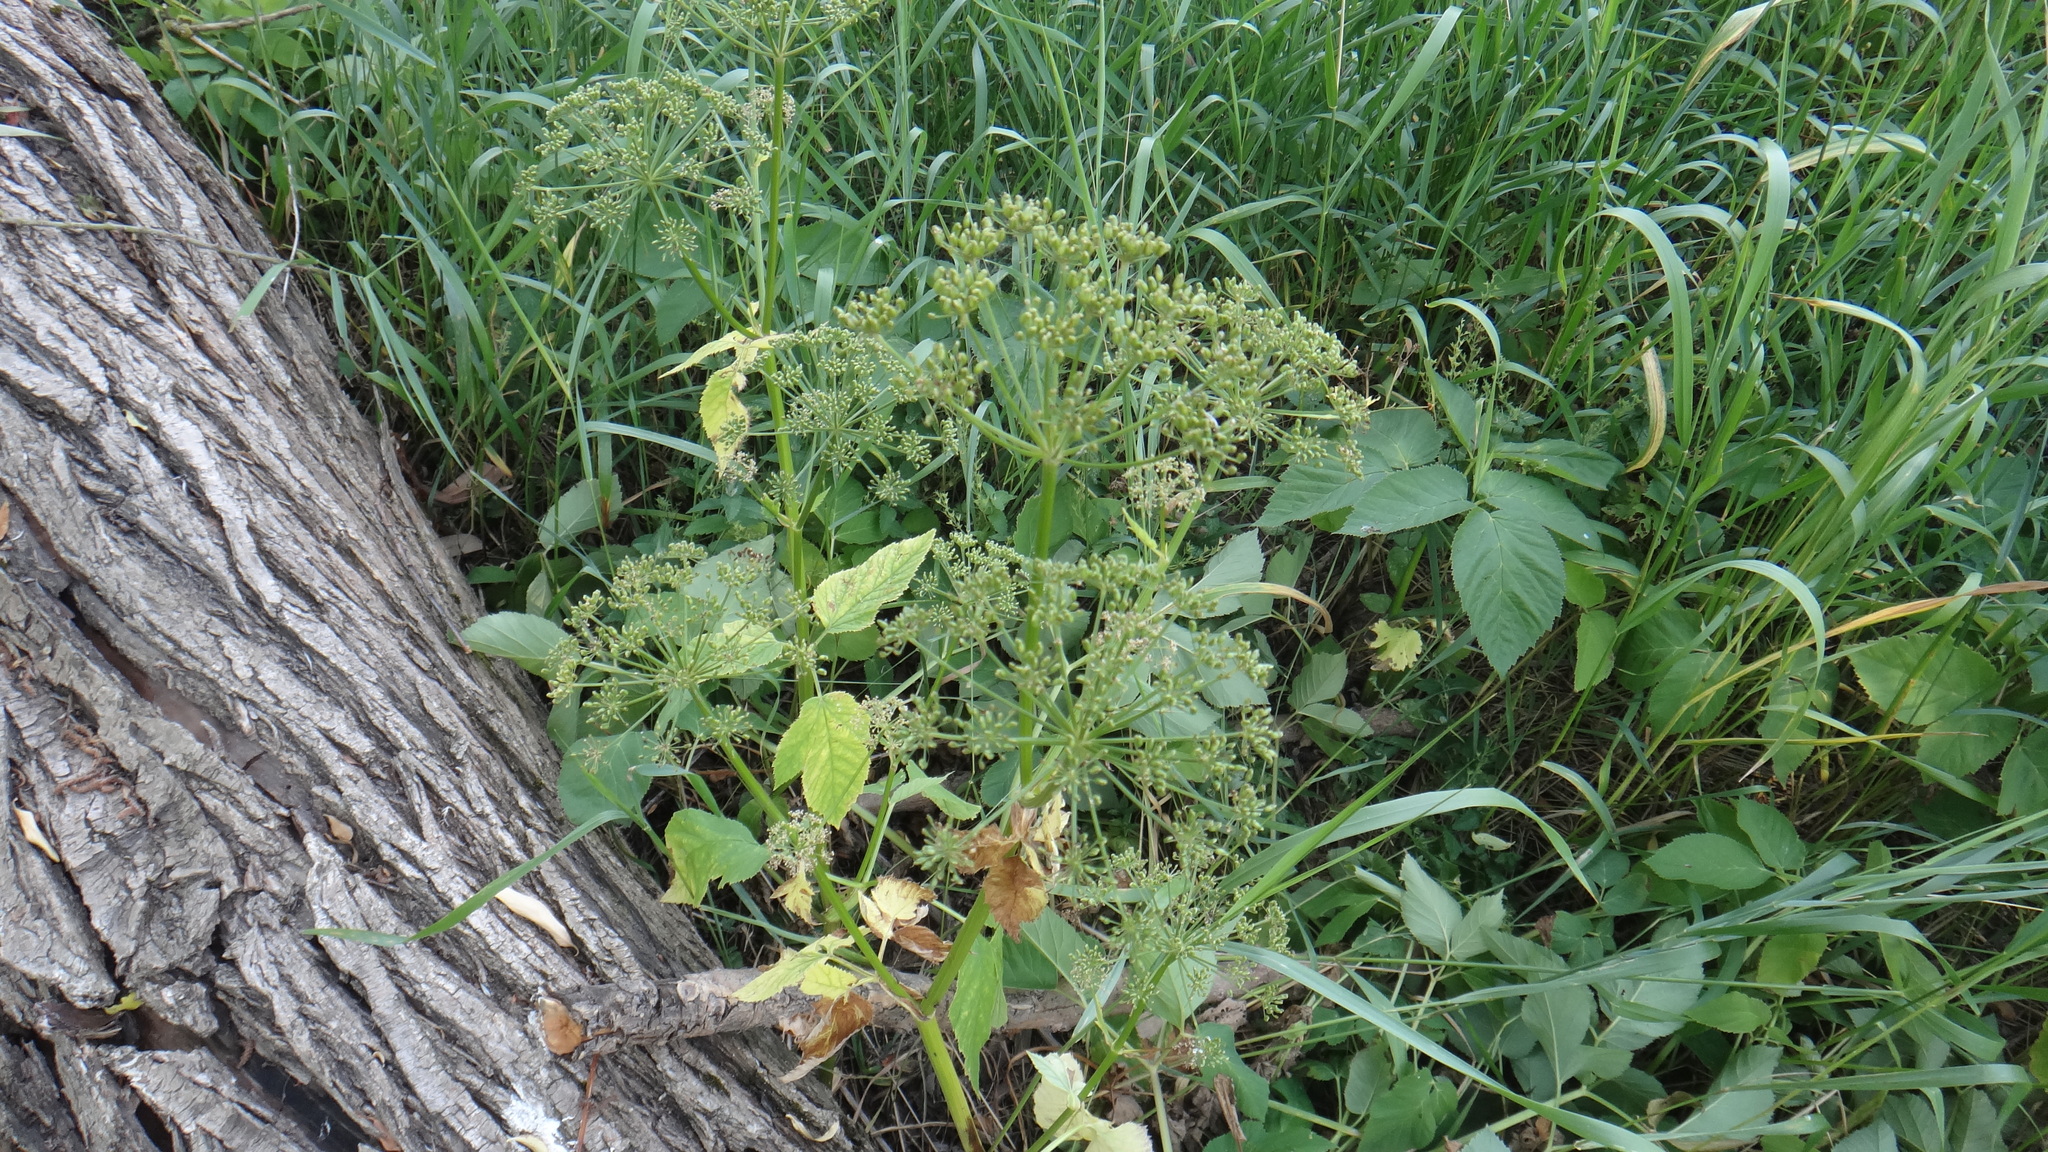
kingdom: Plantae
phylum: Tracheophyta
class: Magnoliopsida
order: Apiales
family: Apiaceae
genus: Aegopodium
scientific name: Aegopodium podagraria
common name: Ground-elder
